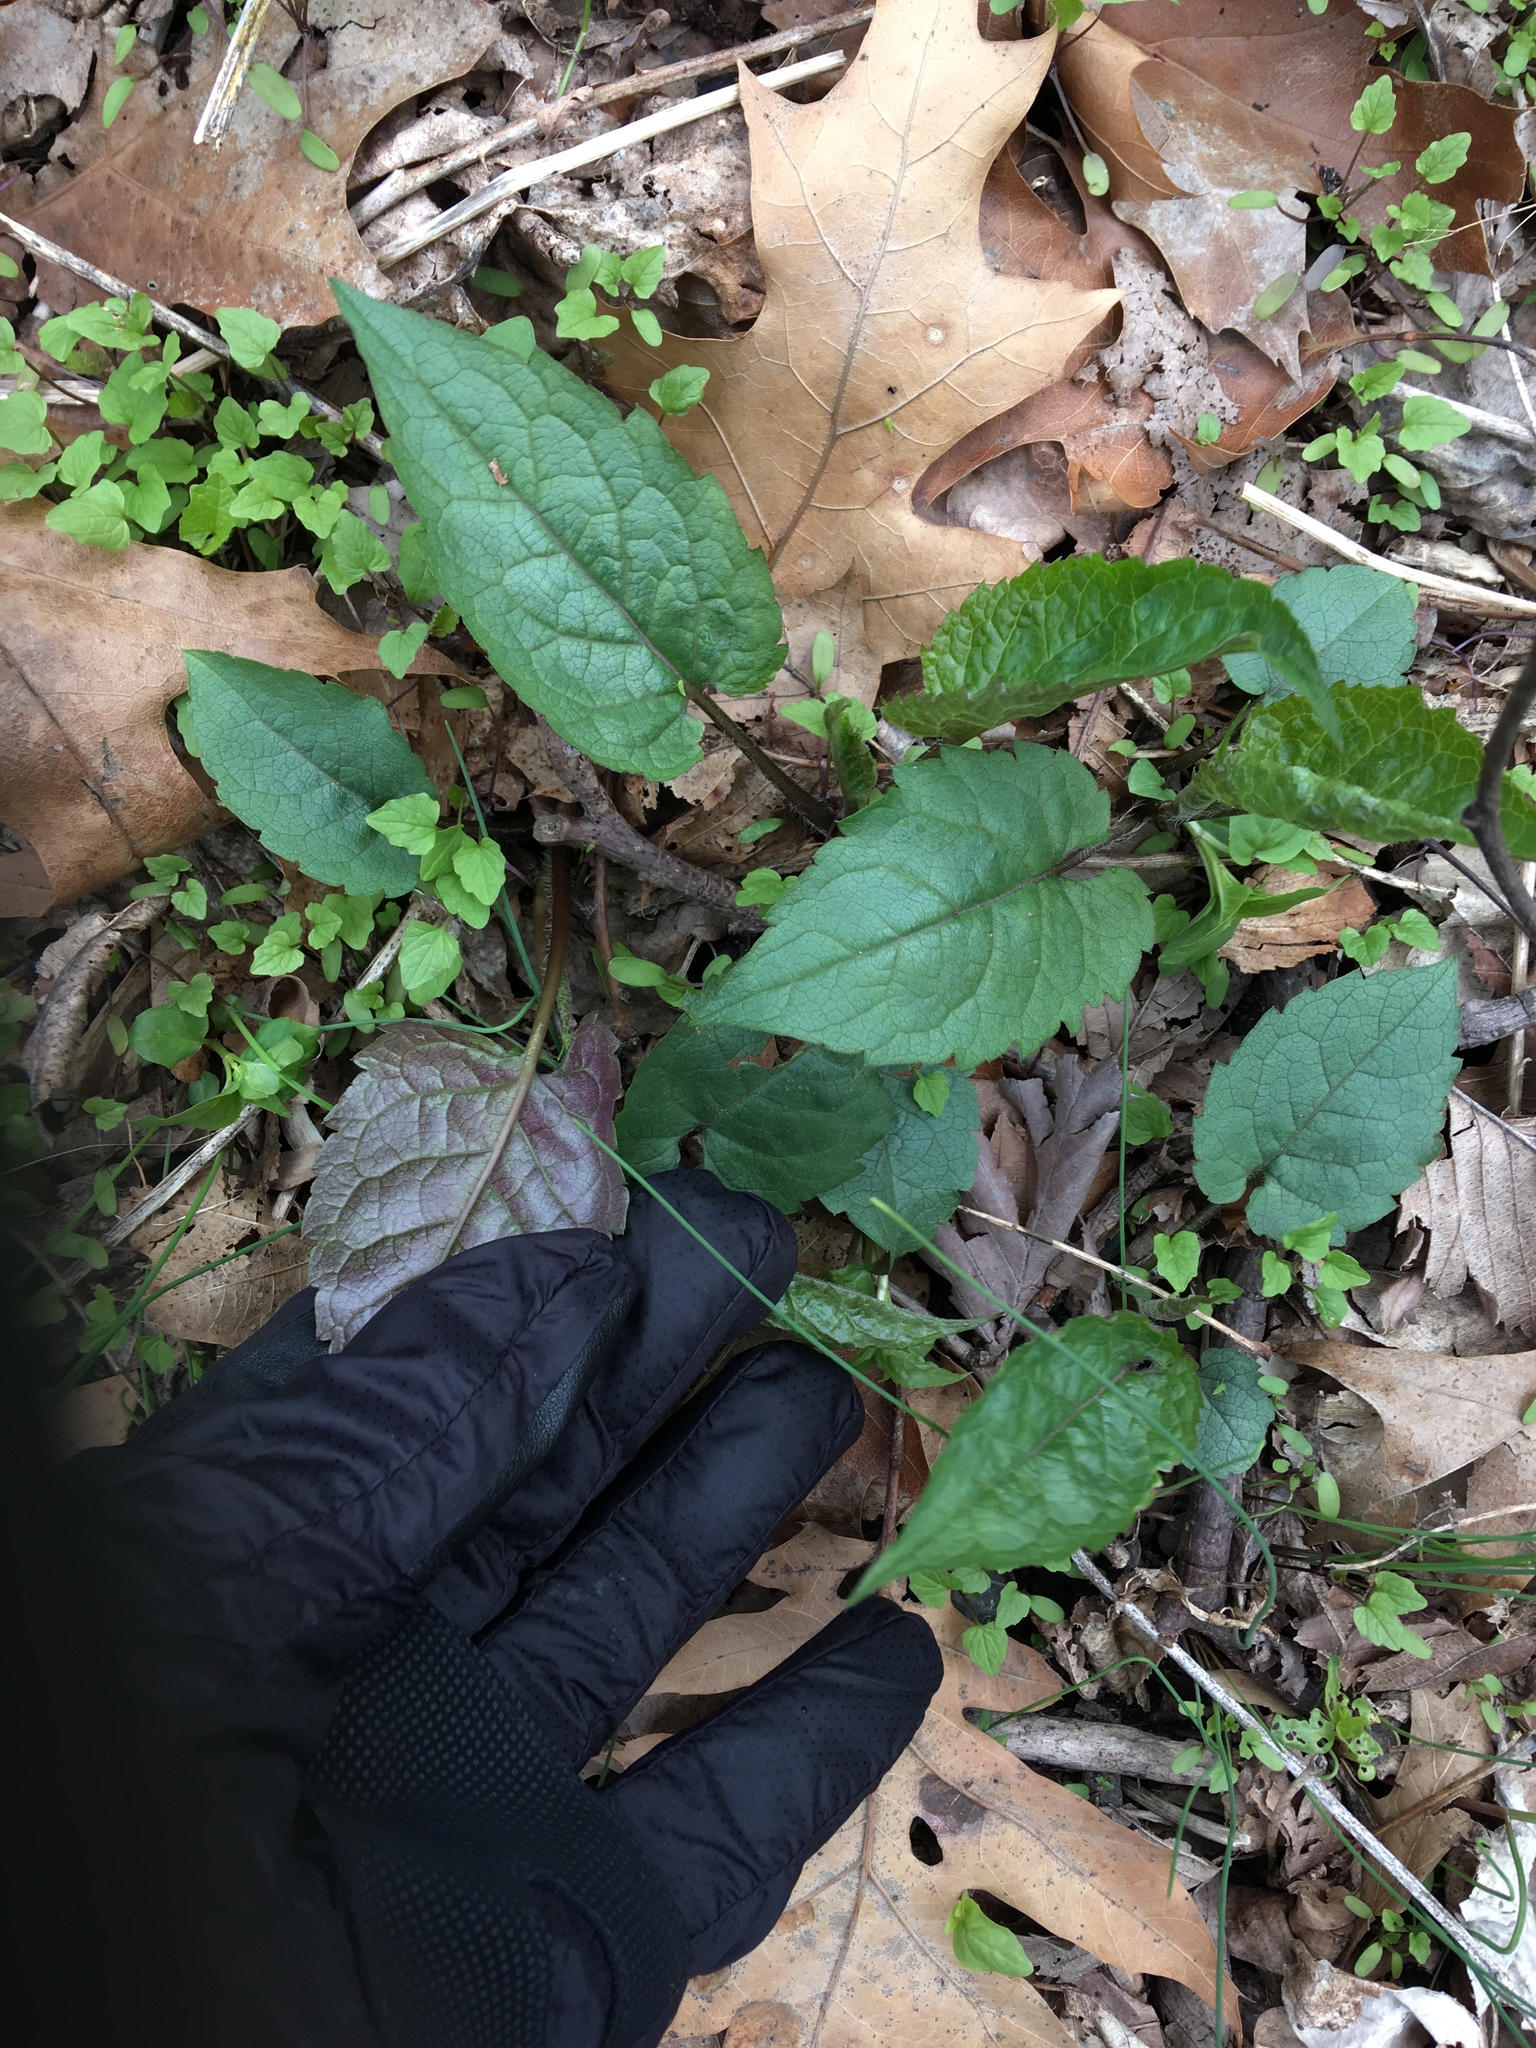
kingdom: Plantae
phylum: Tracheophyta
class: Magnoliopsida
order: Asterales
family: Asteraceae
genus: Eurybia
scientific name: Eurybia divaricata
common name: White wood aster
